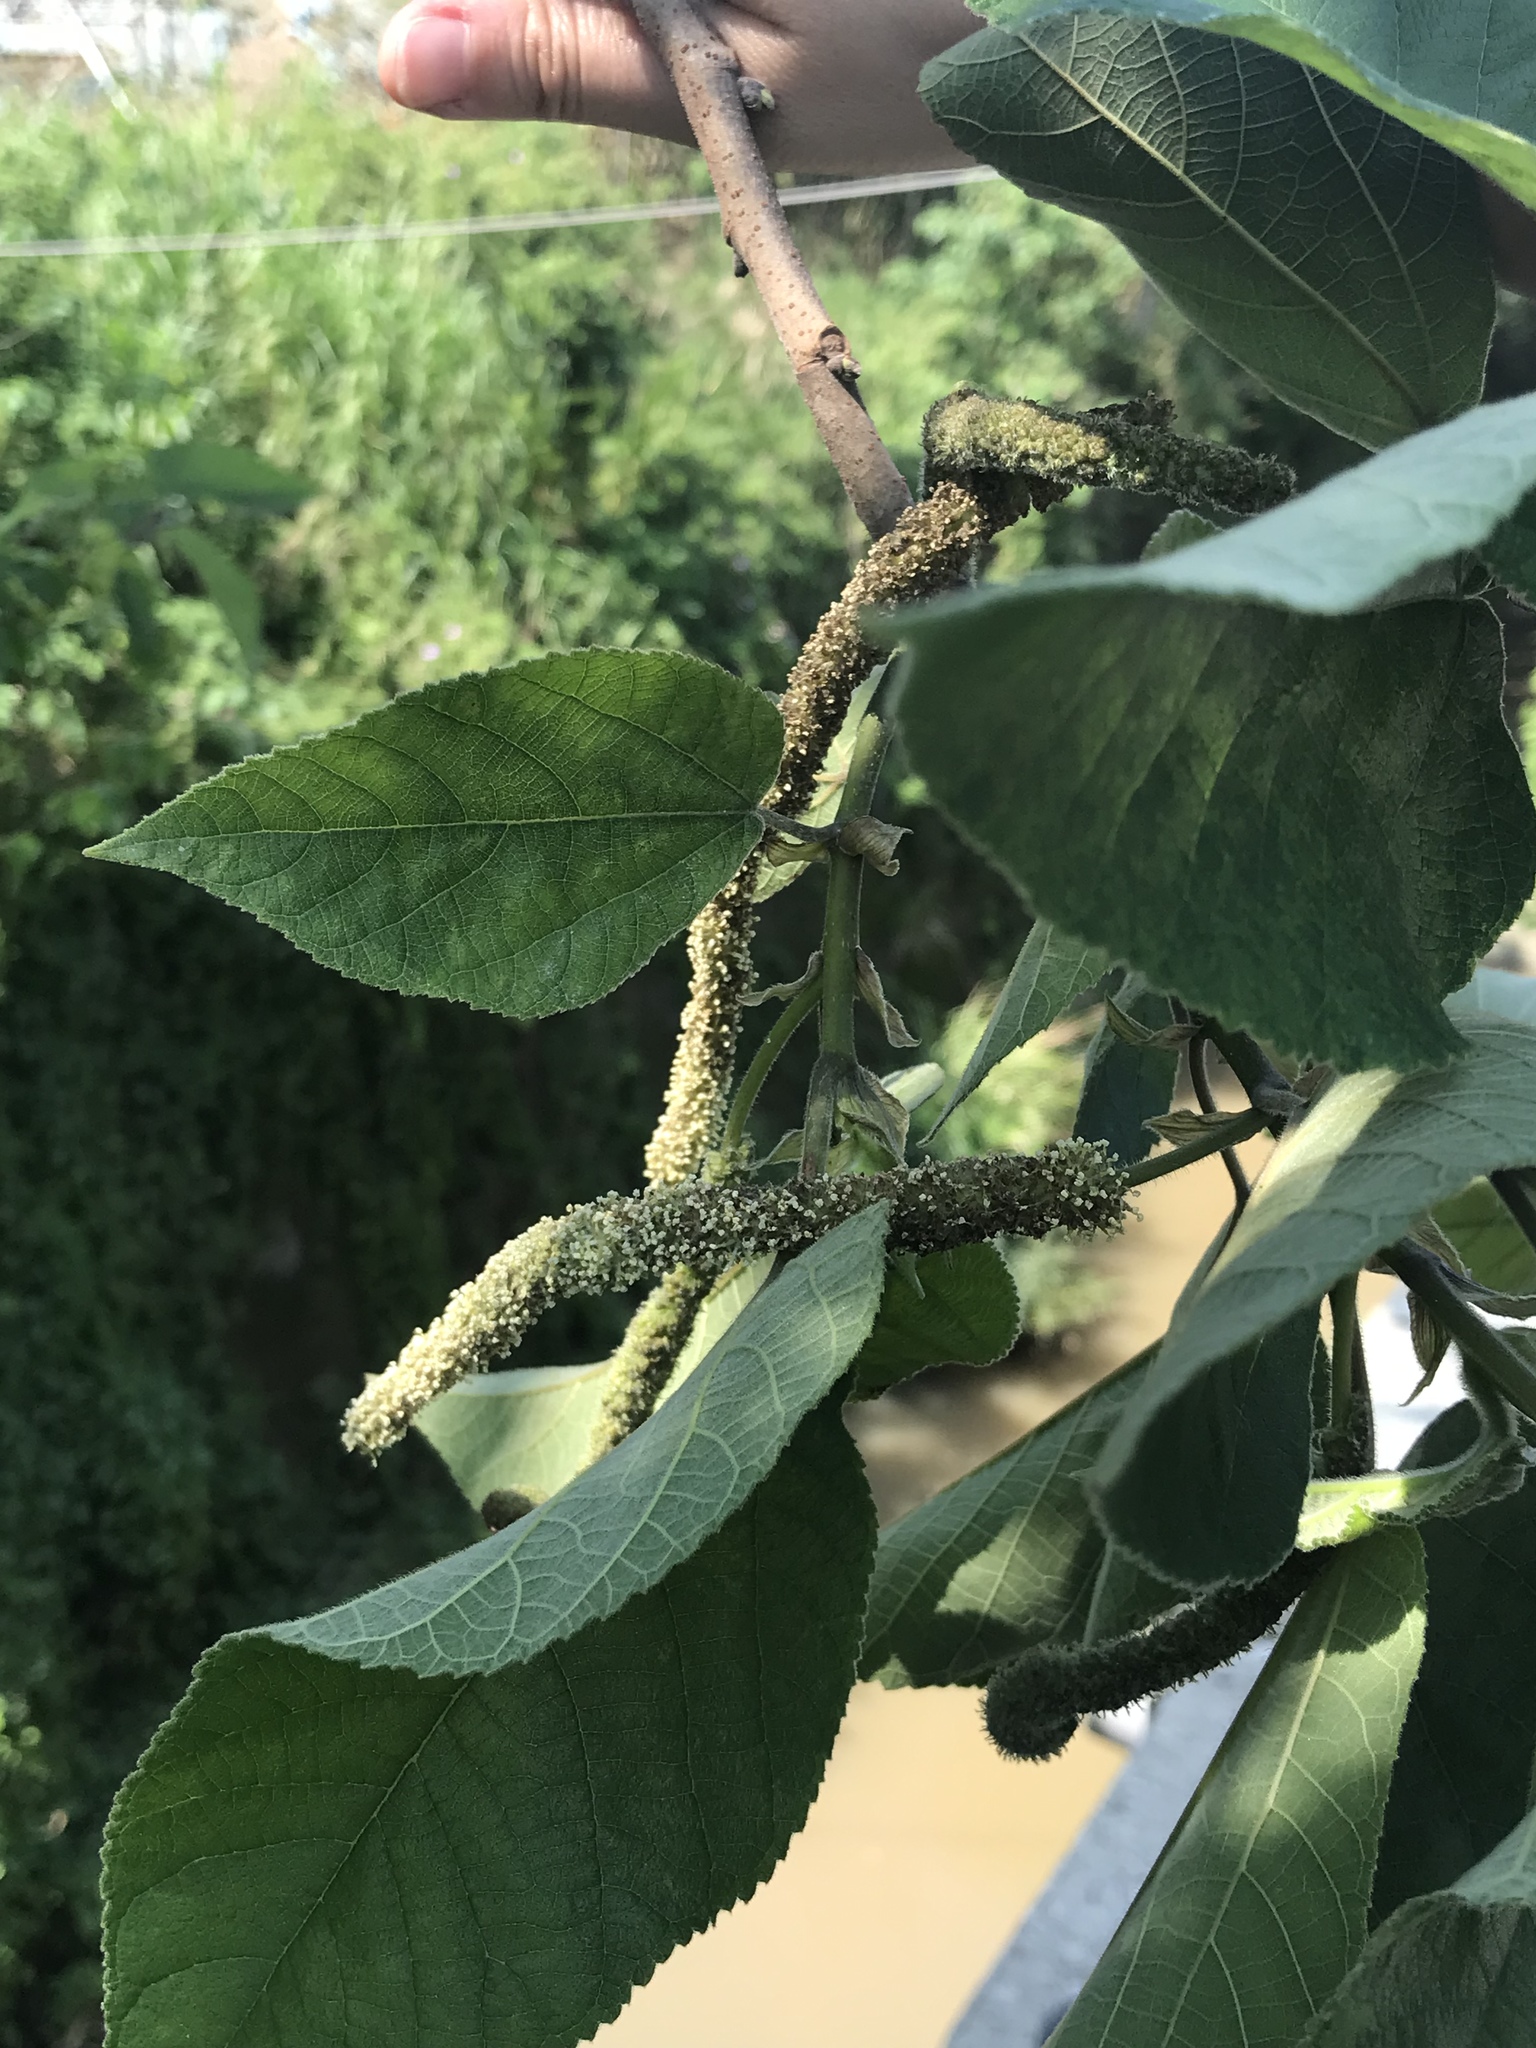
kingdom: Plantae
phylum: Tracheophyta
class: Magnoliopsida
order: Rosales
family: Moraceae
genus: Broussonetia
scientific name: Broussonetia papyrifera
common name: Paper mulberry
